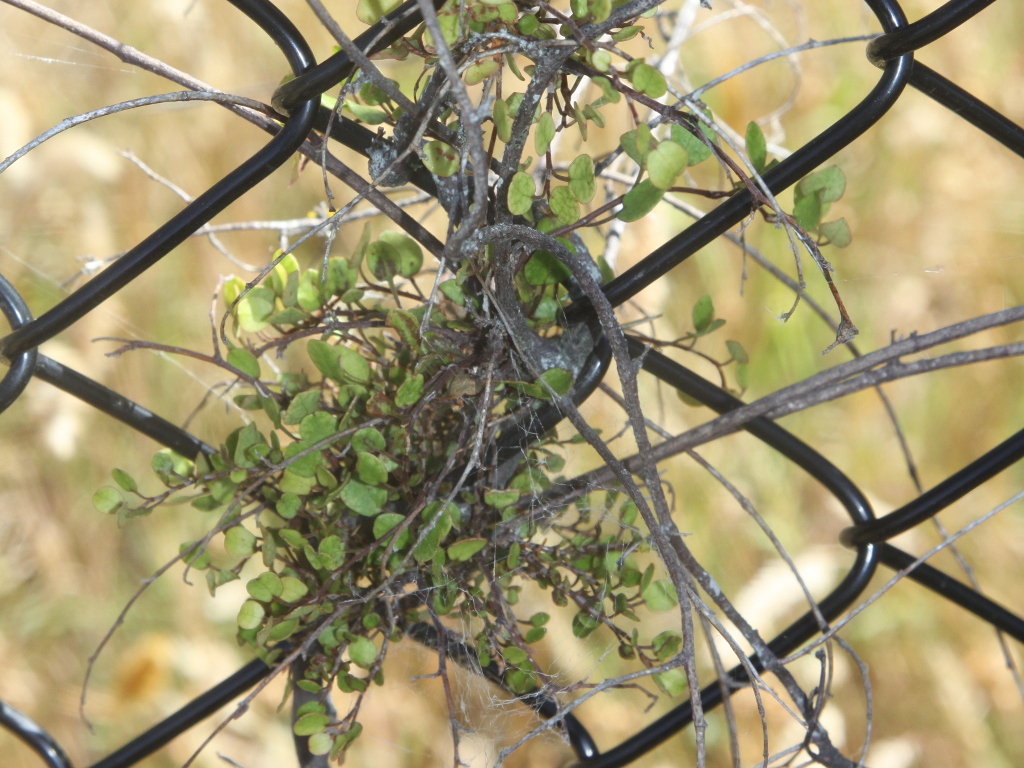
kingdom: Plantae
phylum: Tracheophyta
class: Magnoliopsida
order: Caryophyllales
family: Polygonaceae
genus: Muehlenbeckia
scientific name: Muehlenbeckia complexa
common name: Wireplant
